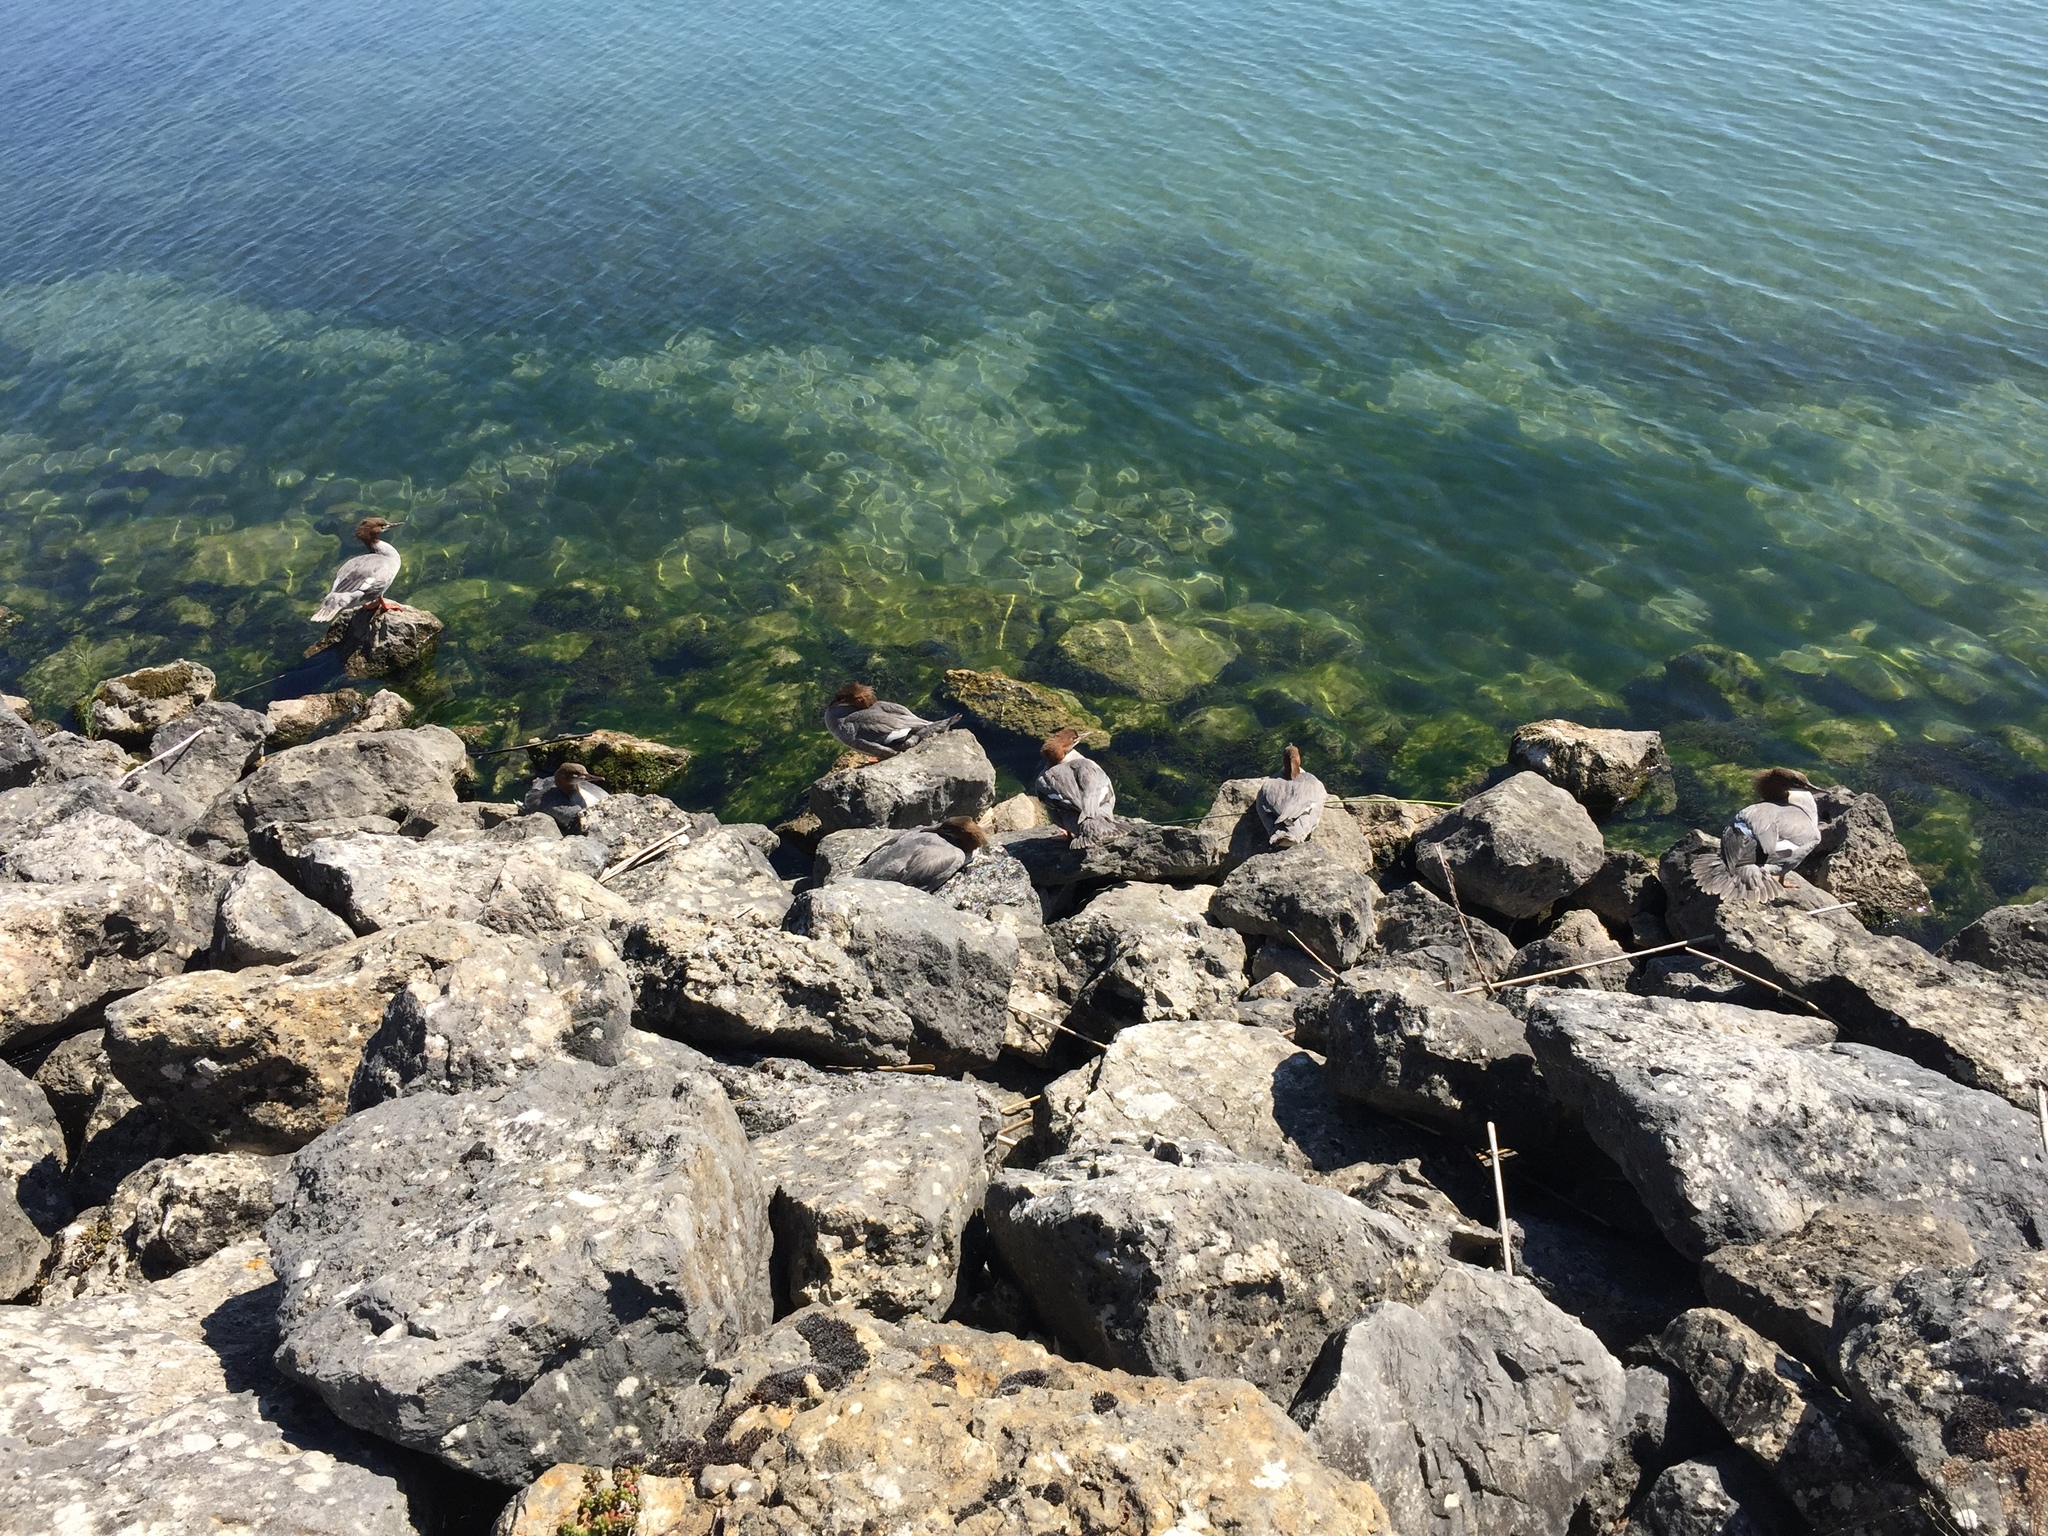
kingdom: Animalia
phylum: Chordata
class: Aves
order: Anseriformes
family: Anatidae
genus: Mergus
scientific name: Mergus merganser
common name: Common merganser
